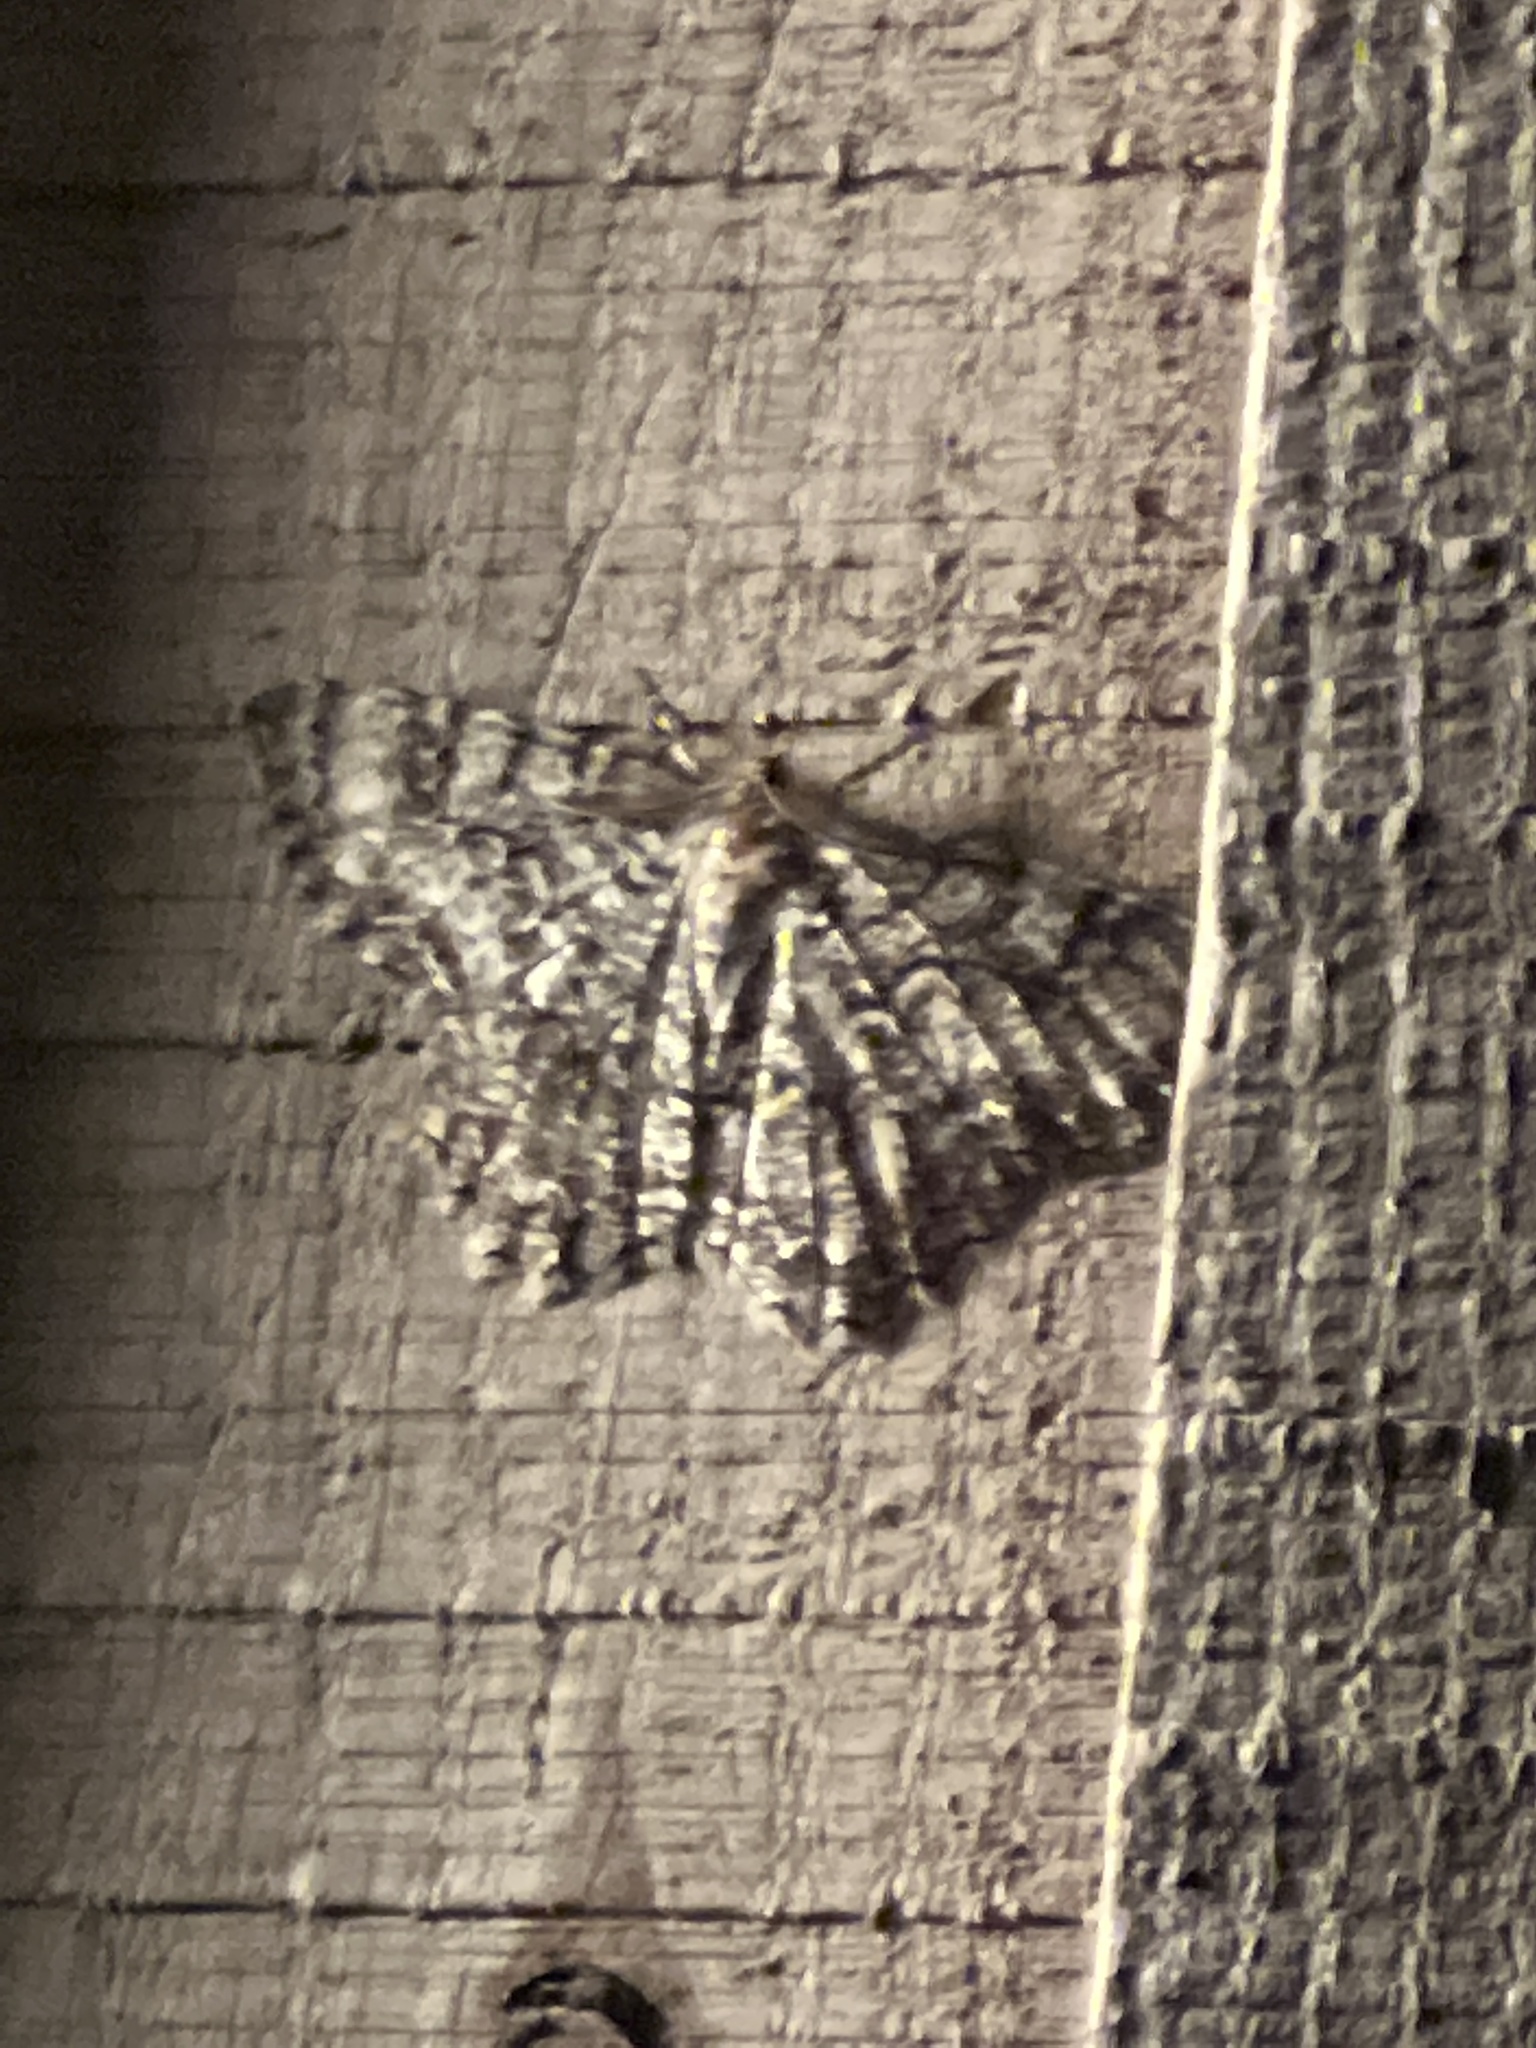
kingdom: Animalia
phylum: Arthropoda
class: Insecta
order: Lepidoptera
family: Geometridae
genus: Epimecis
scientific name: Epimecis hortaria
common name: Tulip-tree beauty
